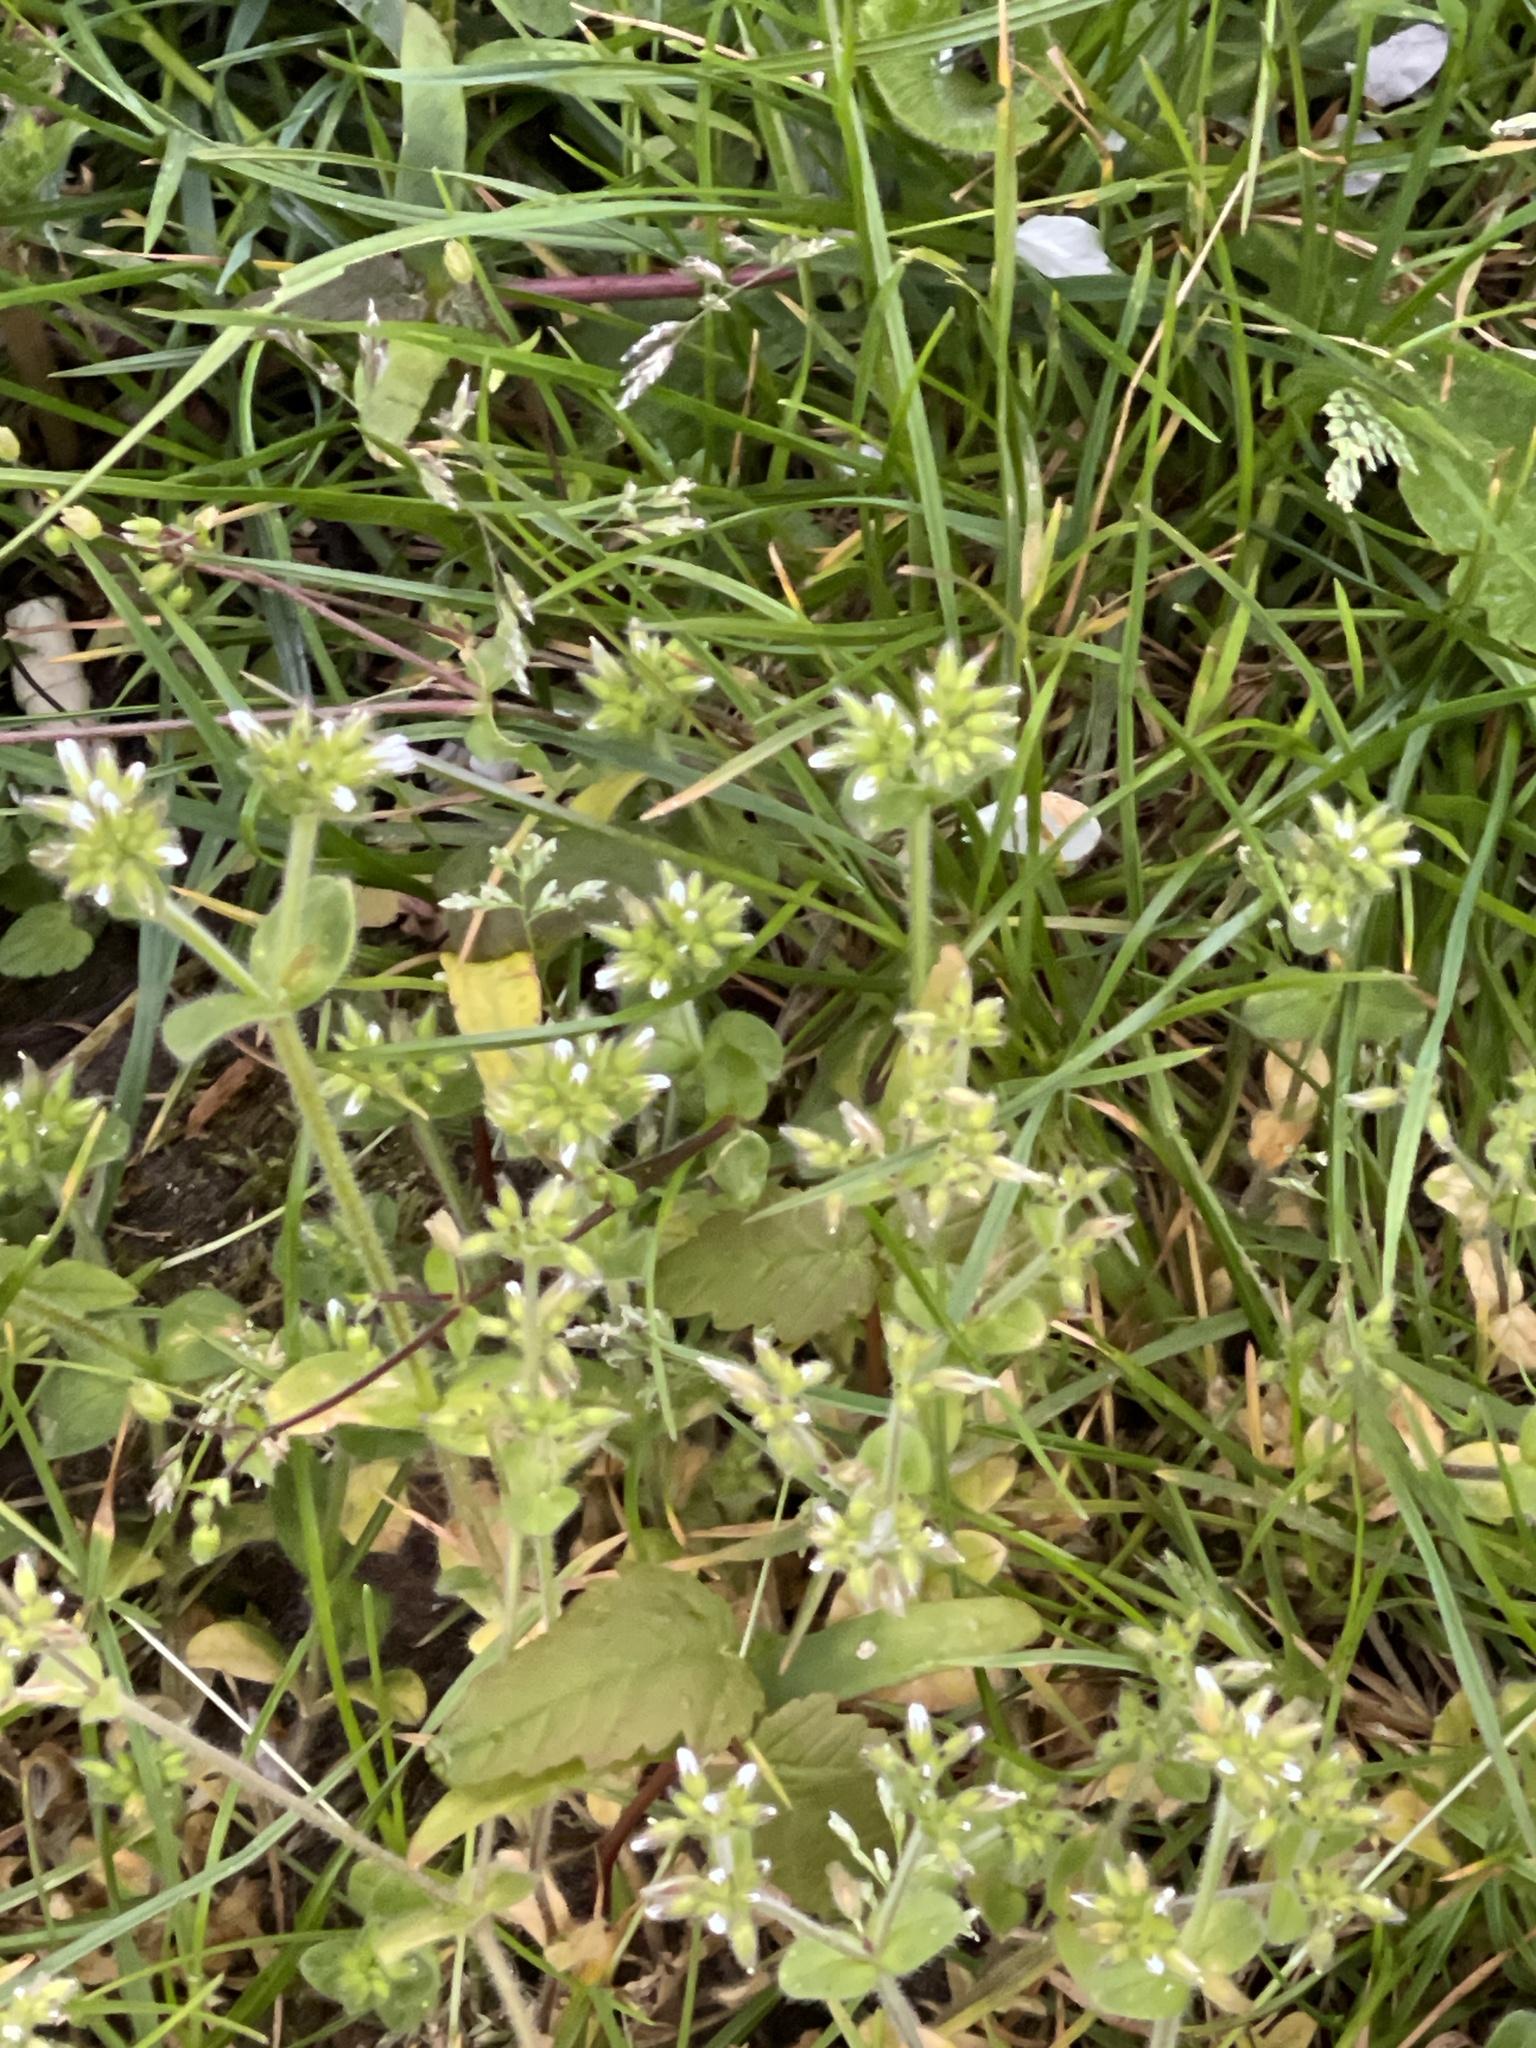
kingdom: Plantae
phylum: Tracheophyta
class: Magnoliopsida
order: Caryophyllales
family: Caryophyllaceae
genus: Cerastium
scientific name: Cerastium glomeratum
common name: Sticky chickweed
